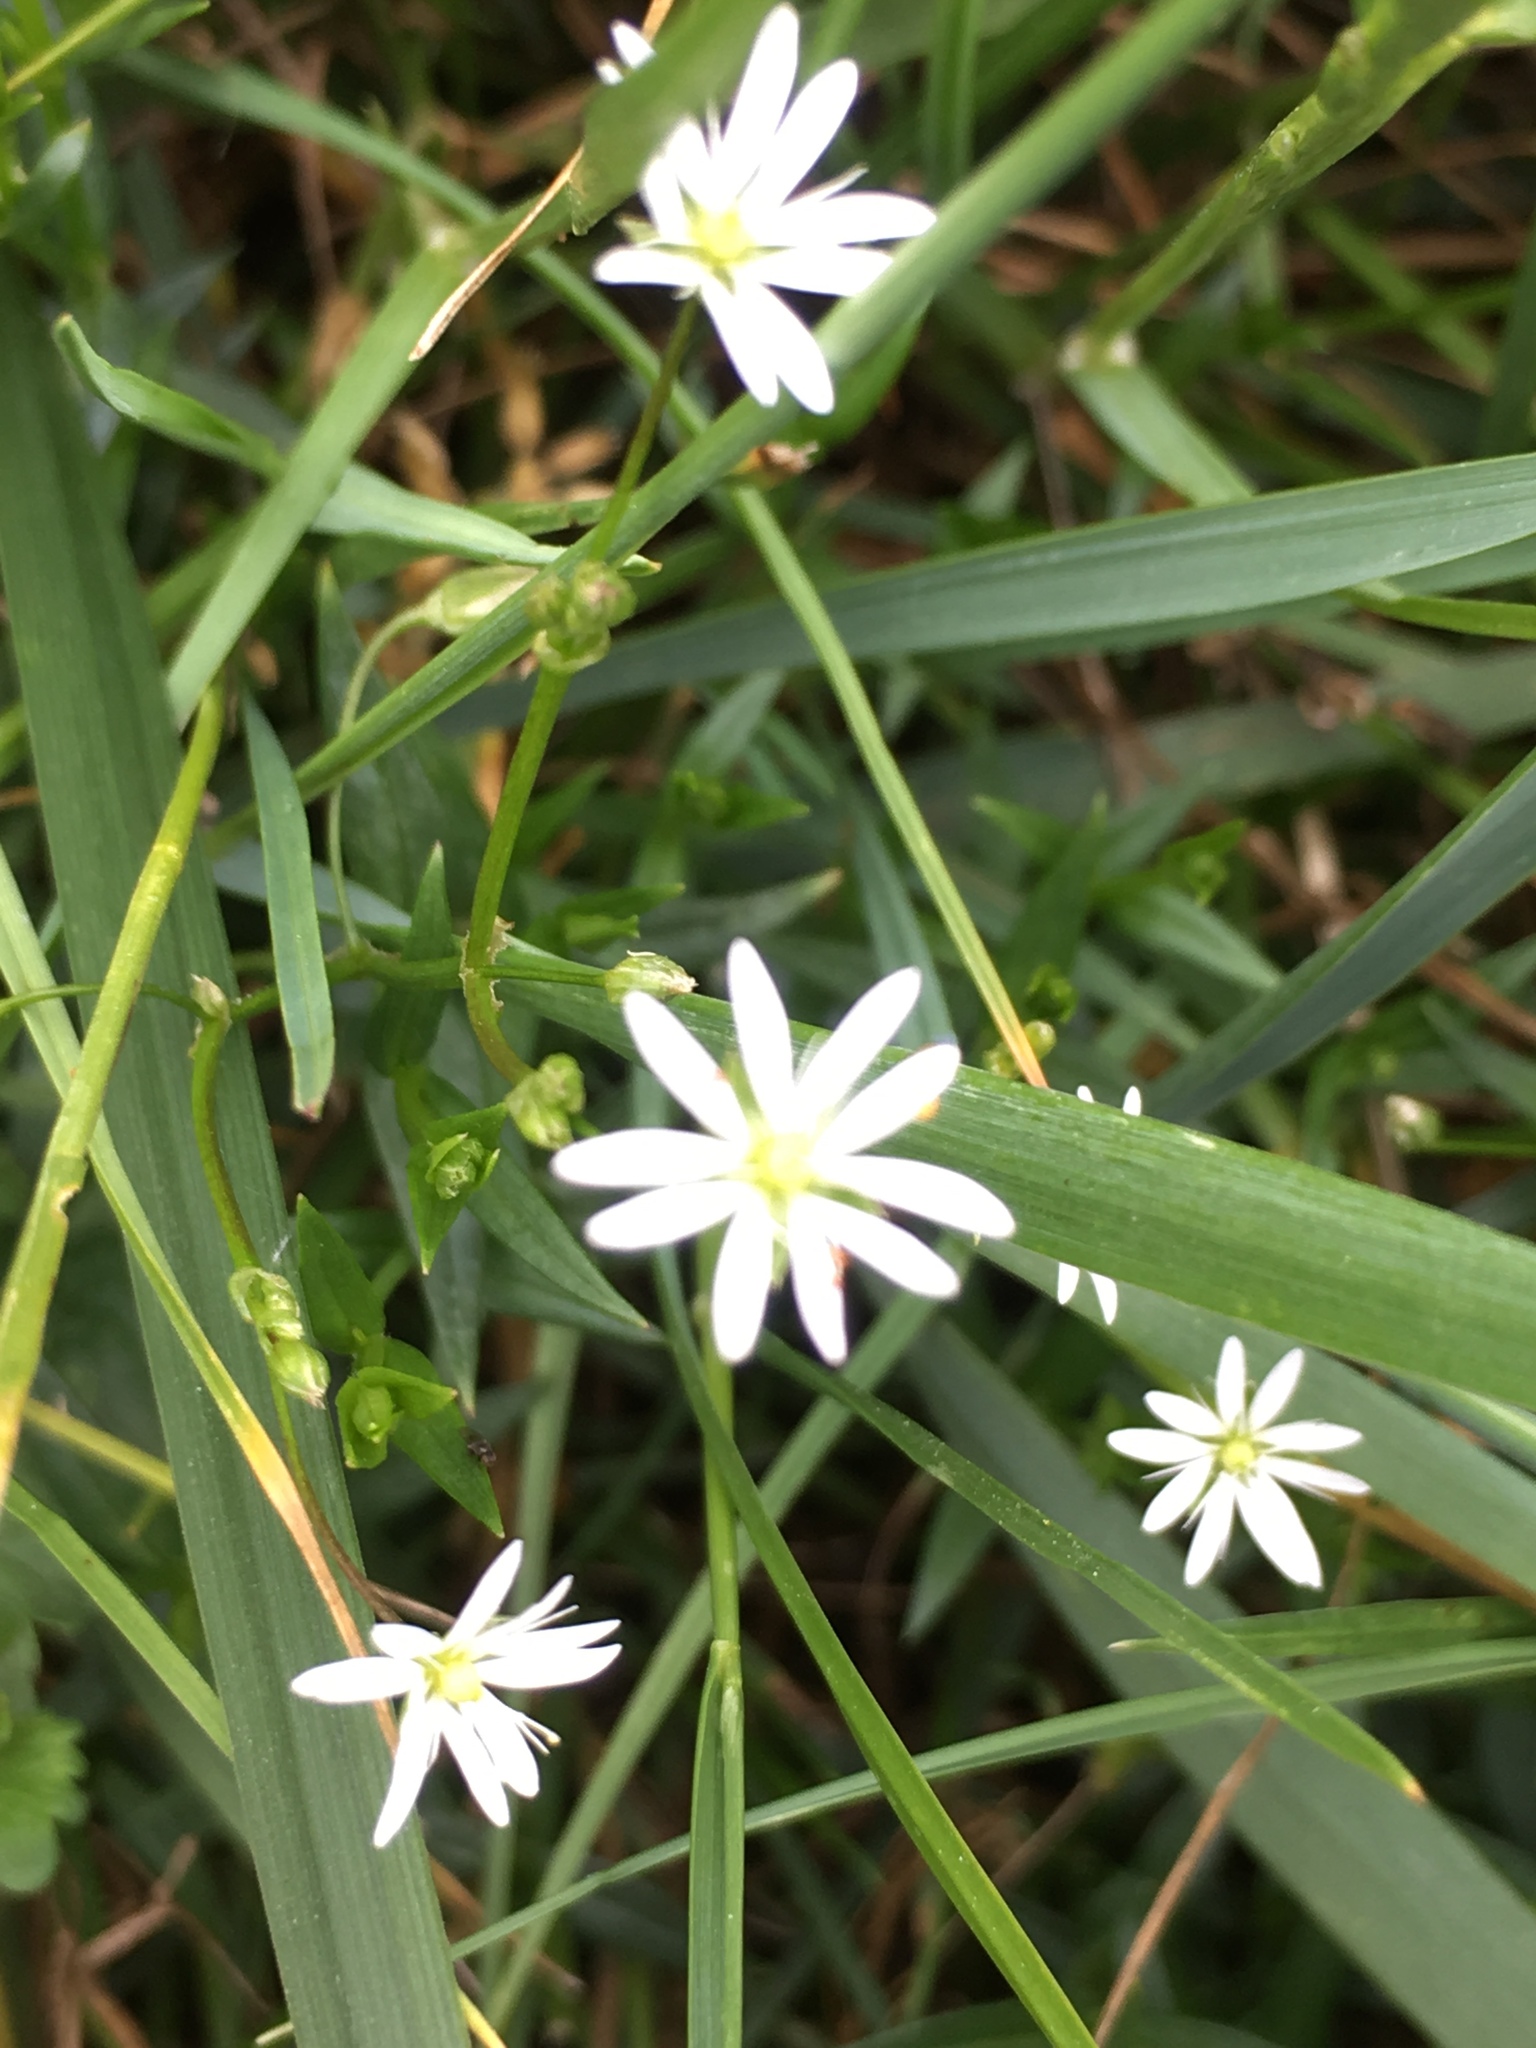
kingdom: Plantae
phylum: Tracheophyta
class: Magnoliopsida
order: Caryophyllales
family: Caryophyllaceae
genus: Stellaria
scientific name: Stellaria graminea
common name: Grass-like starwort
